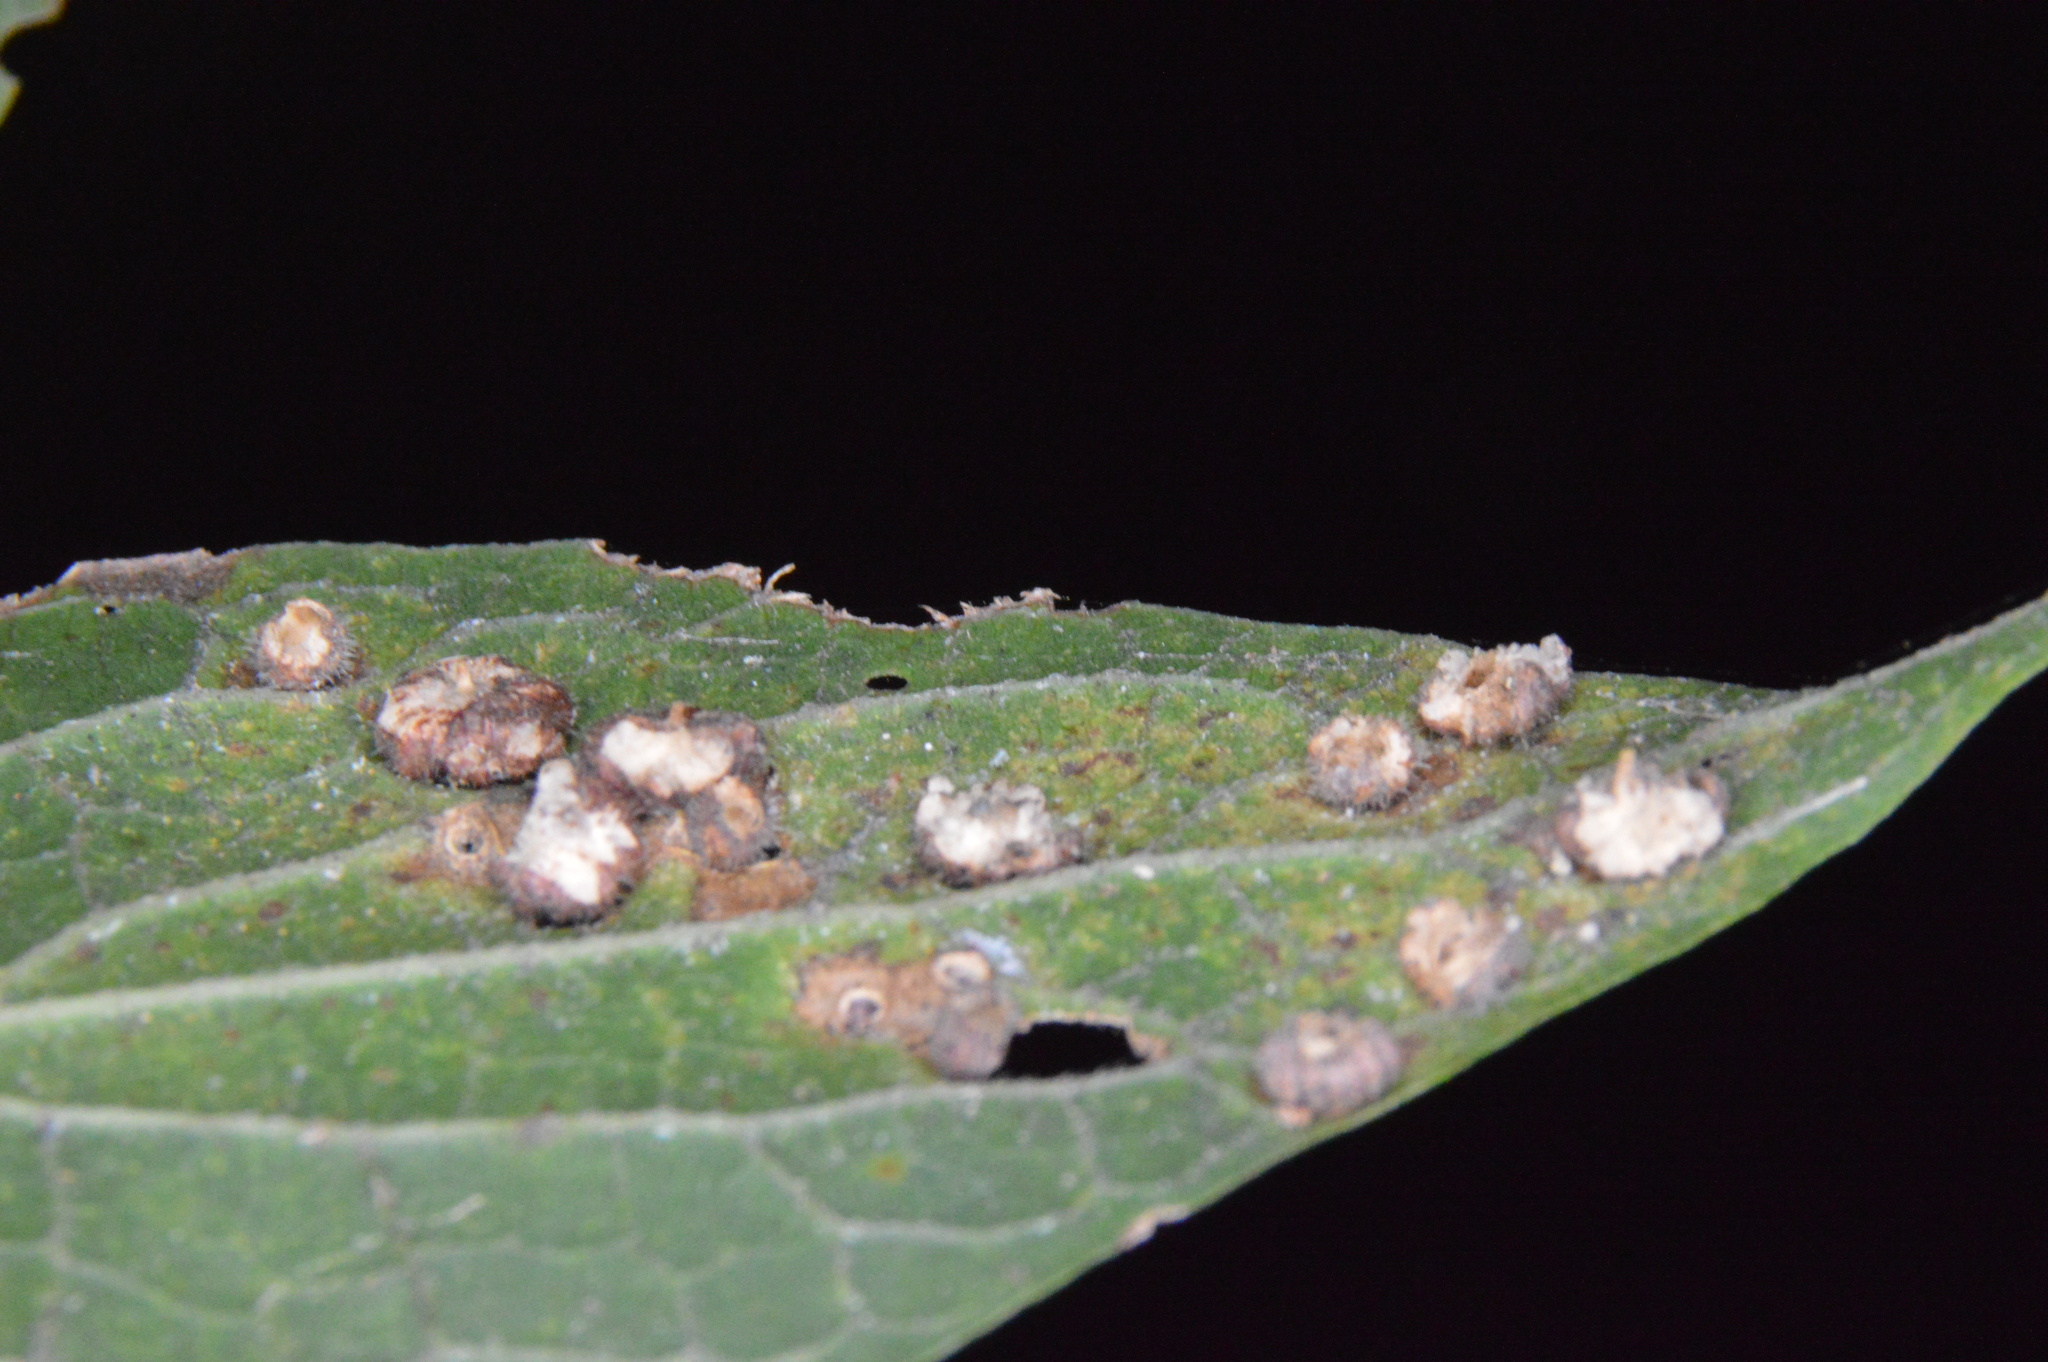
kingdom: Animalia
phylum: Arthropoda
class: Insecta
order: Diptera
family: Cecidomyiidae
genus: Celticecis
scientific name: Celticecis capsularis
